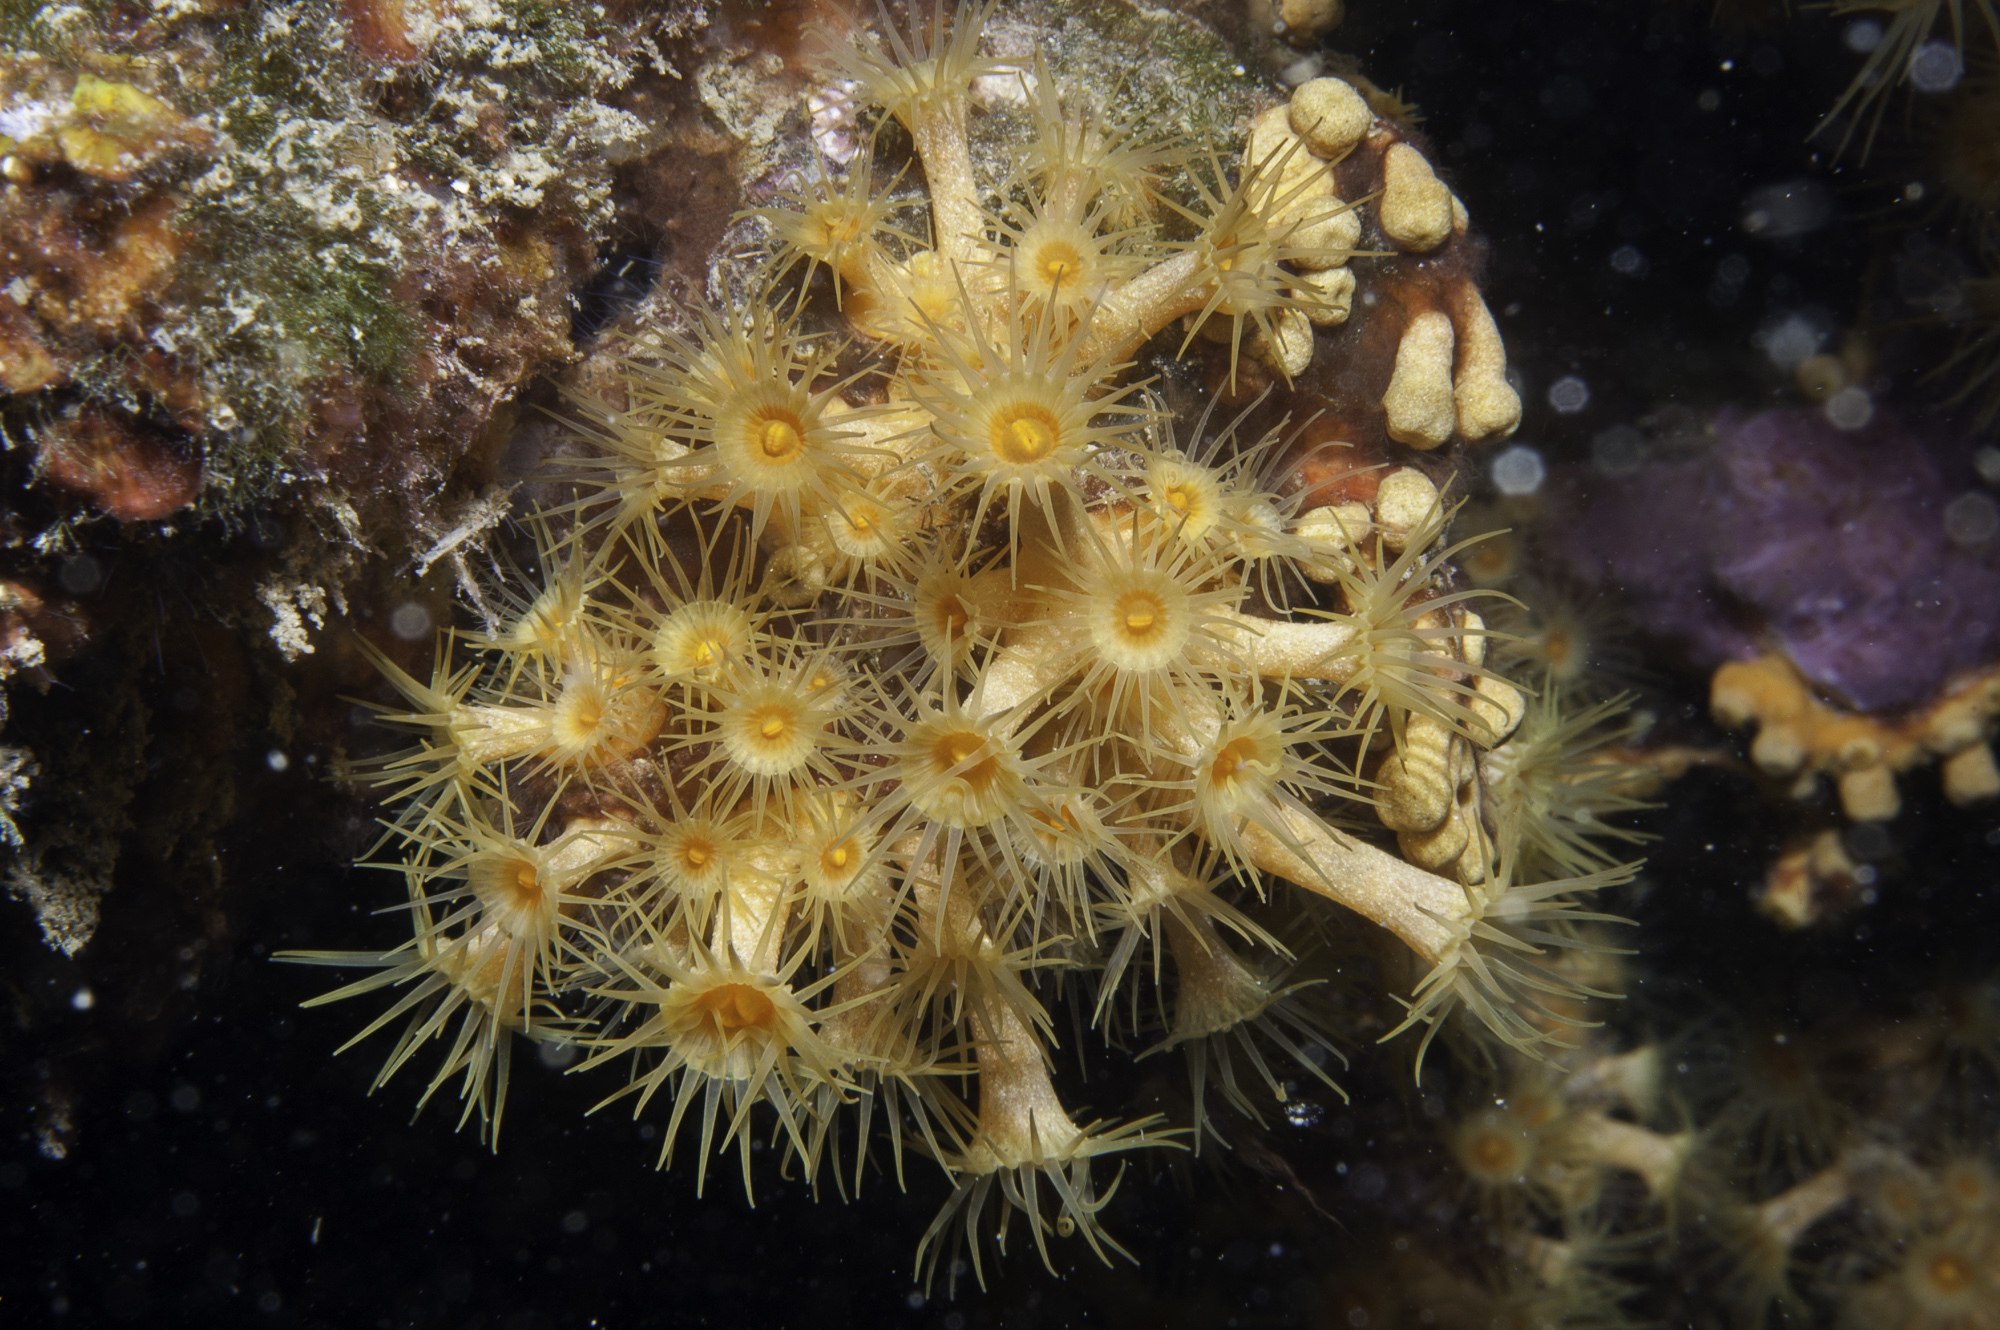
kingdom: Animalia
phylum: Cnidaria
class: Anthozoa
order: Zoantharia
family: Parazoanthidae
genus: Parazoanthus
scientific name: Parazoanthus axinellae
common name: Yellow cluster anemone
